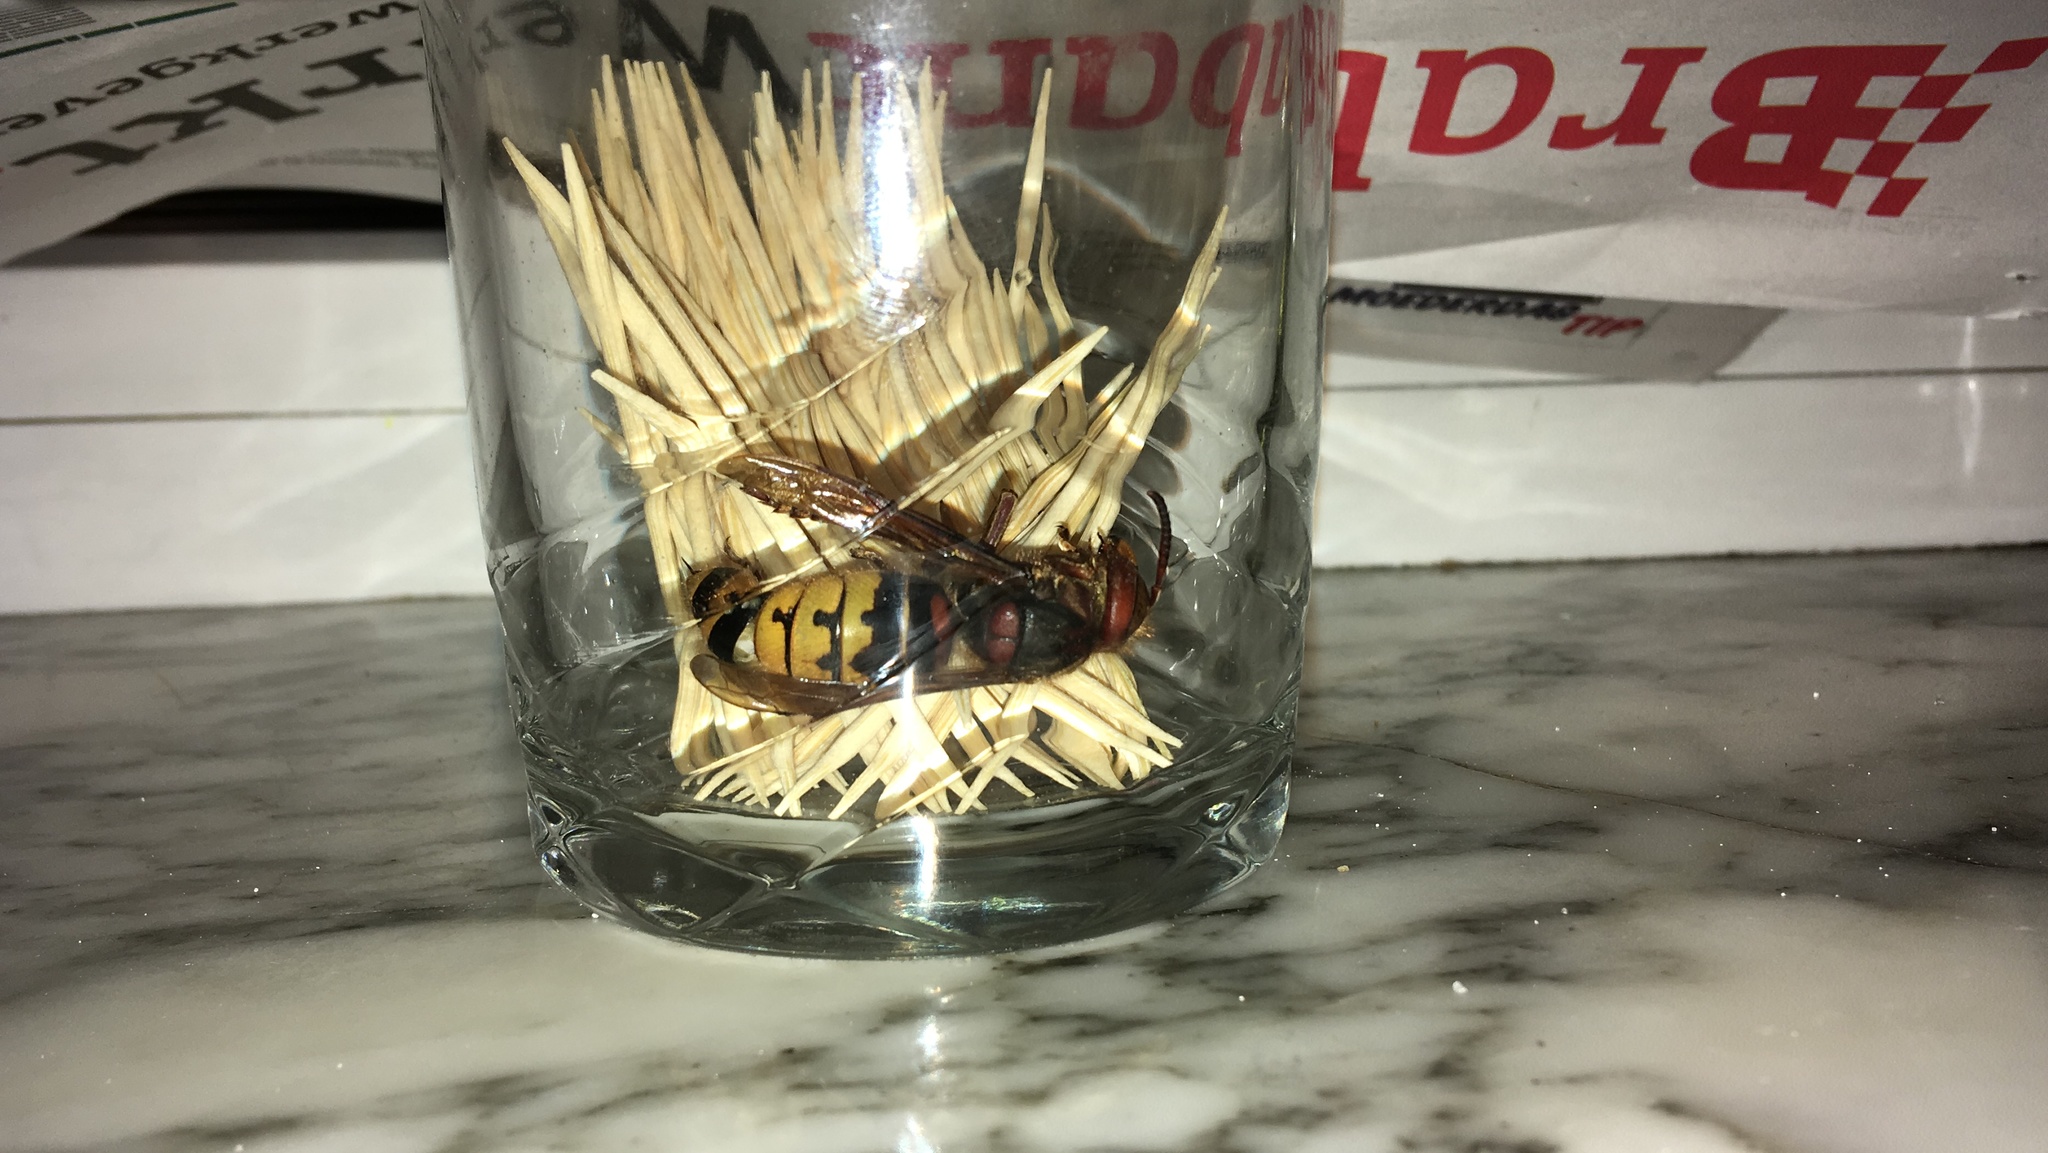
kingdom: Animalia
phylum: Arthropoda
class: Insecta
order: Hymenoptera
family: Vespidae
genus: Vespa
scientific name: Vespa crabro
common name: Hornet
